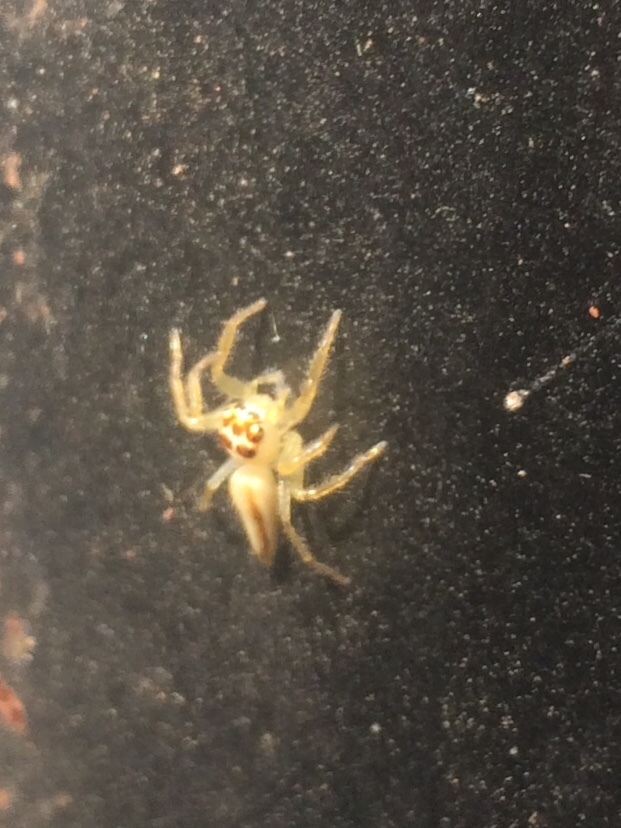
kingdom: Animalia
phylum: Arthropoda
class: Arachnida
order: Araneae
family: Salticidae
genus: Telamonia
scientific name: Telamonia dimidiata
